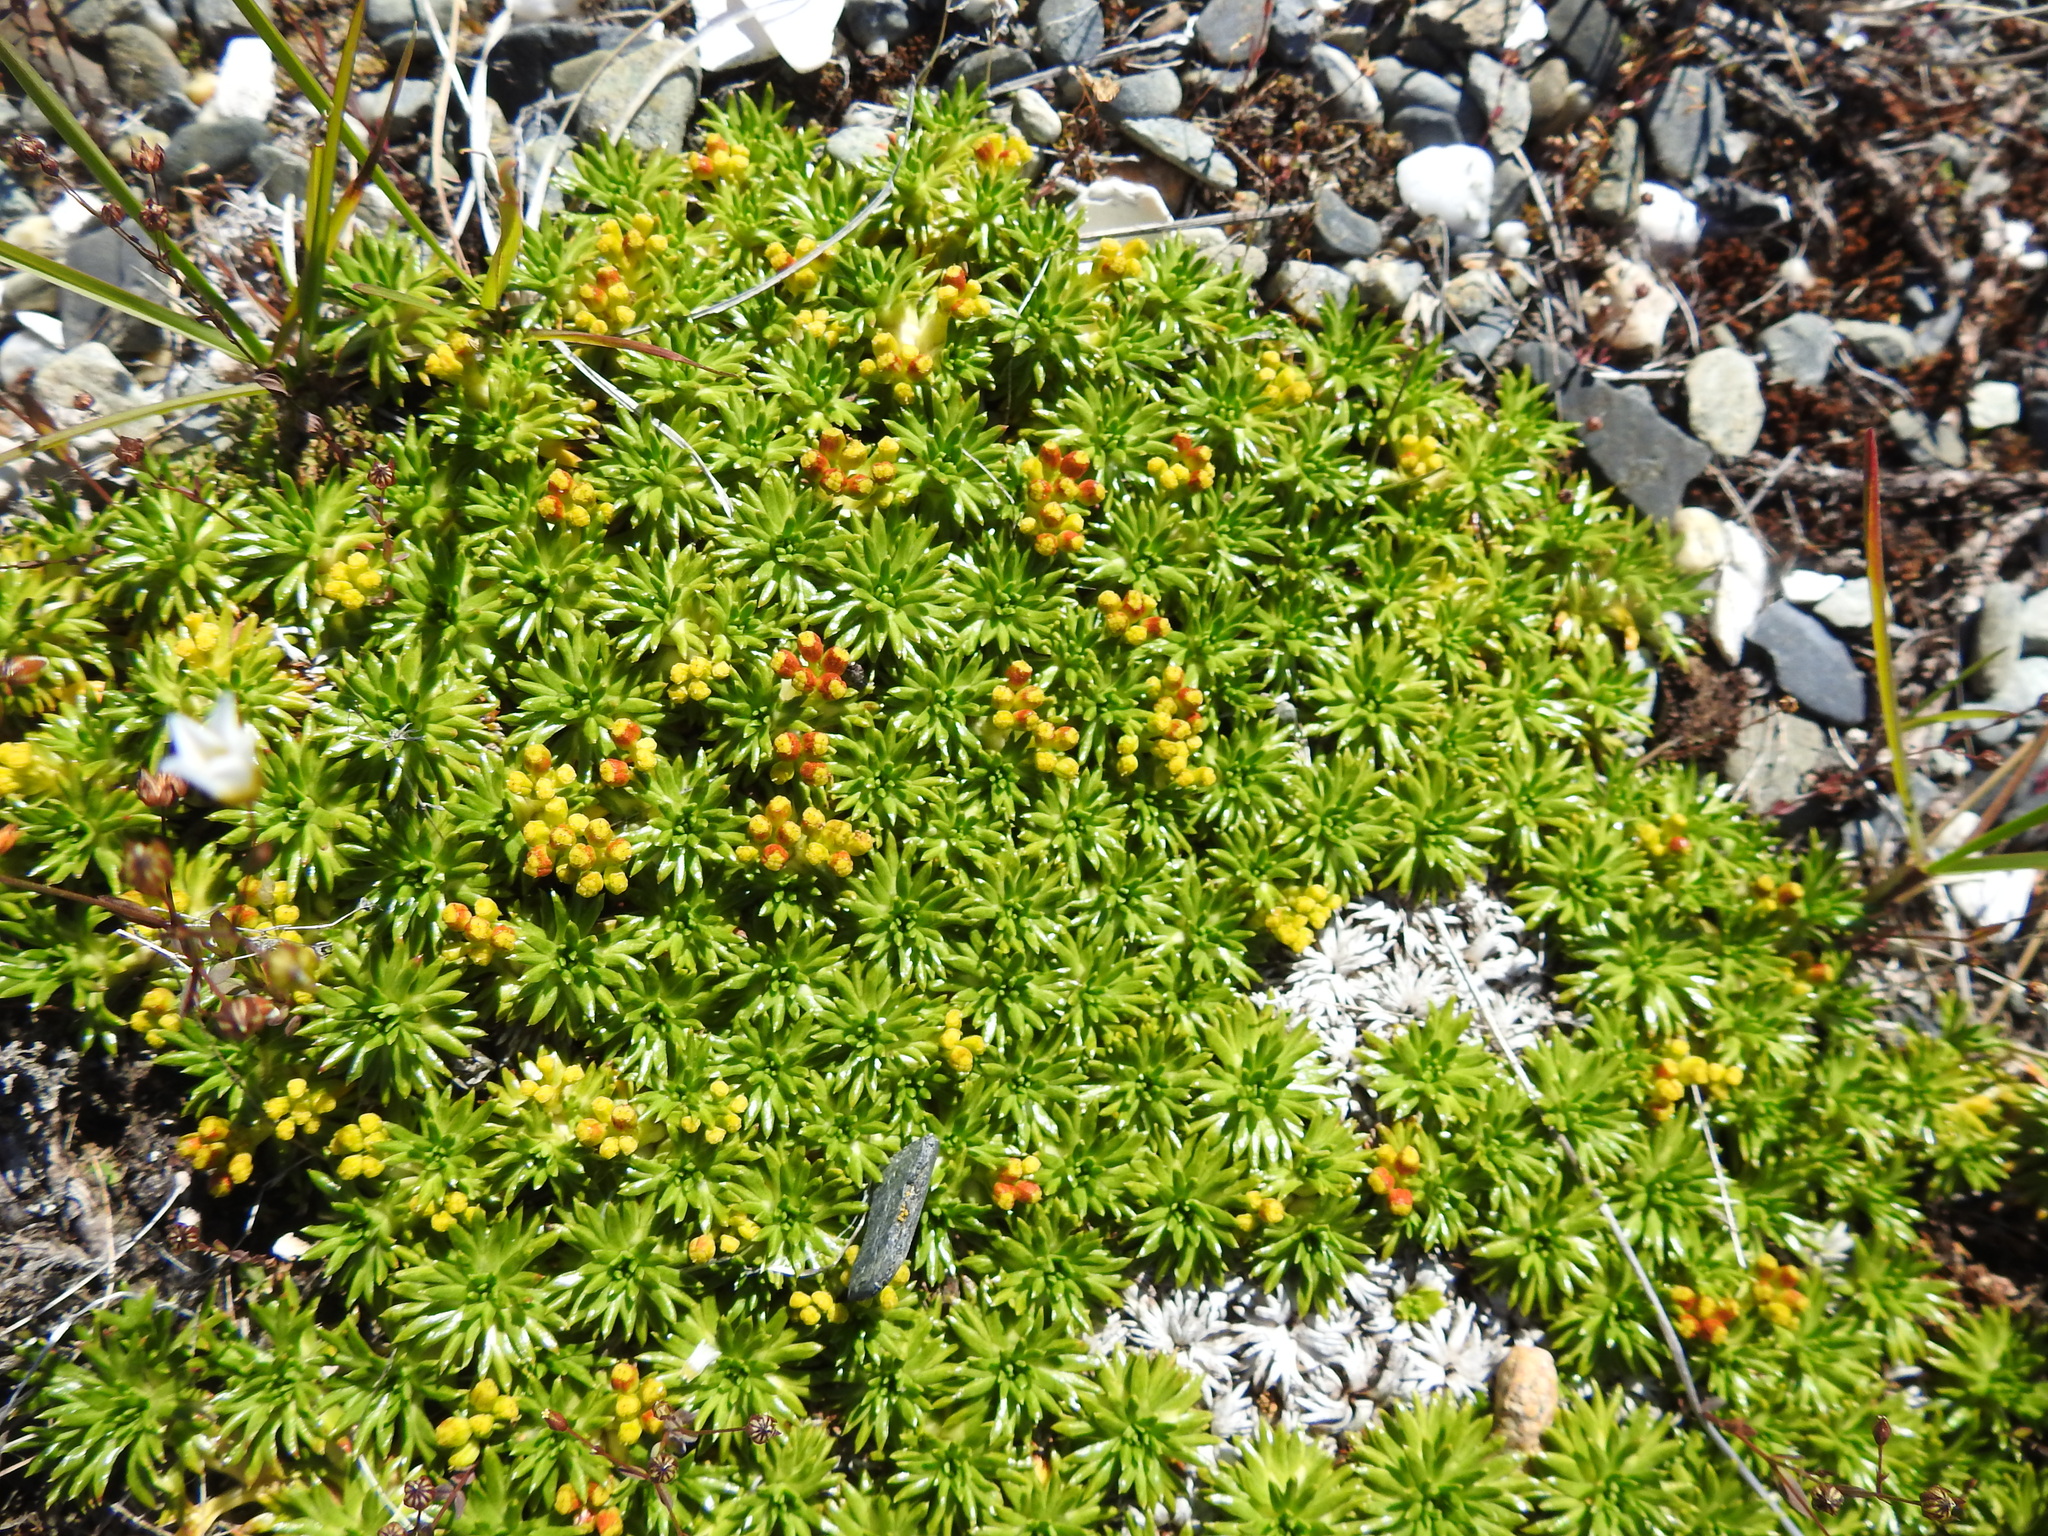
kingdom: Plantae
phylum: Tracheophyta
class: Magnoliopsida
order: Apiales
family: Apiaceae
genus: Azorella
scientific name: Azorella trifurcata
